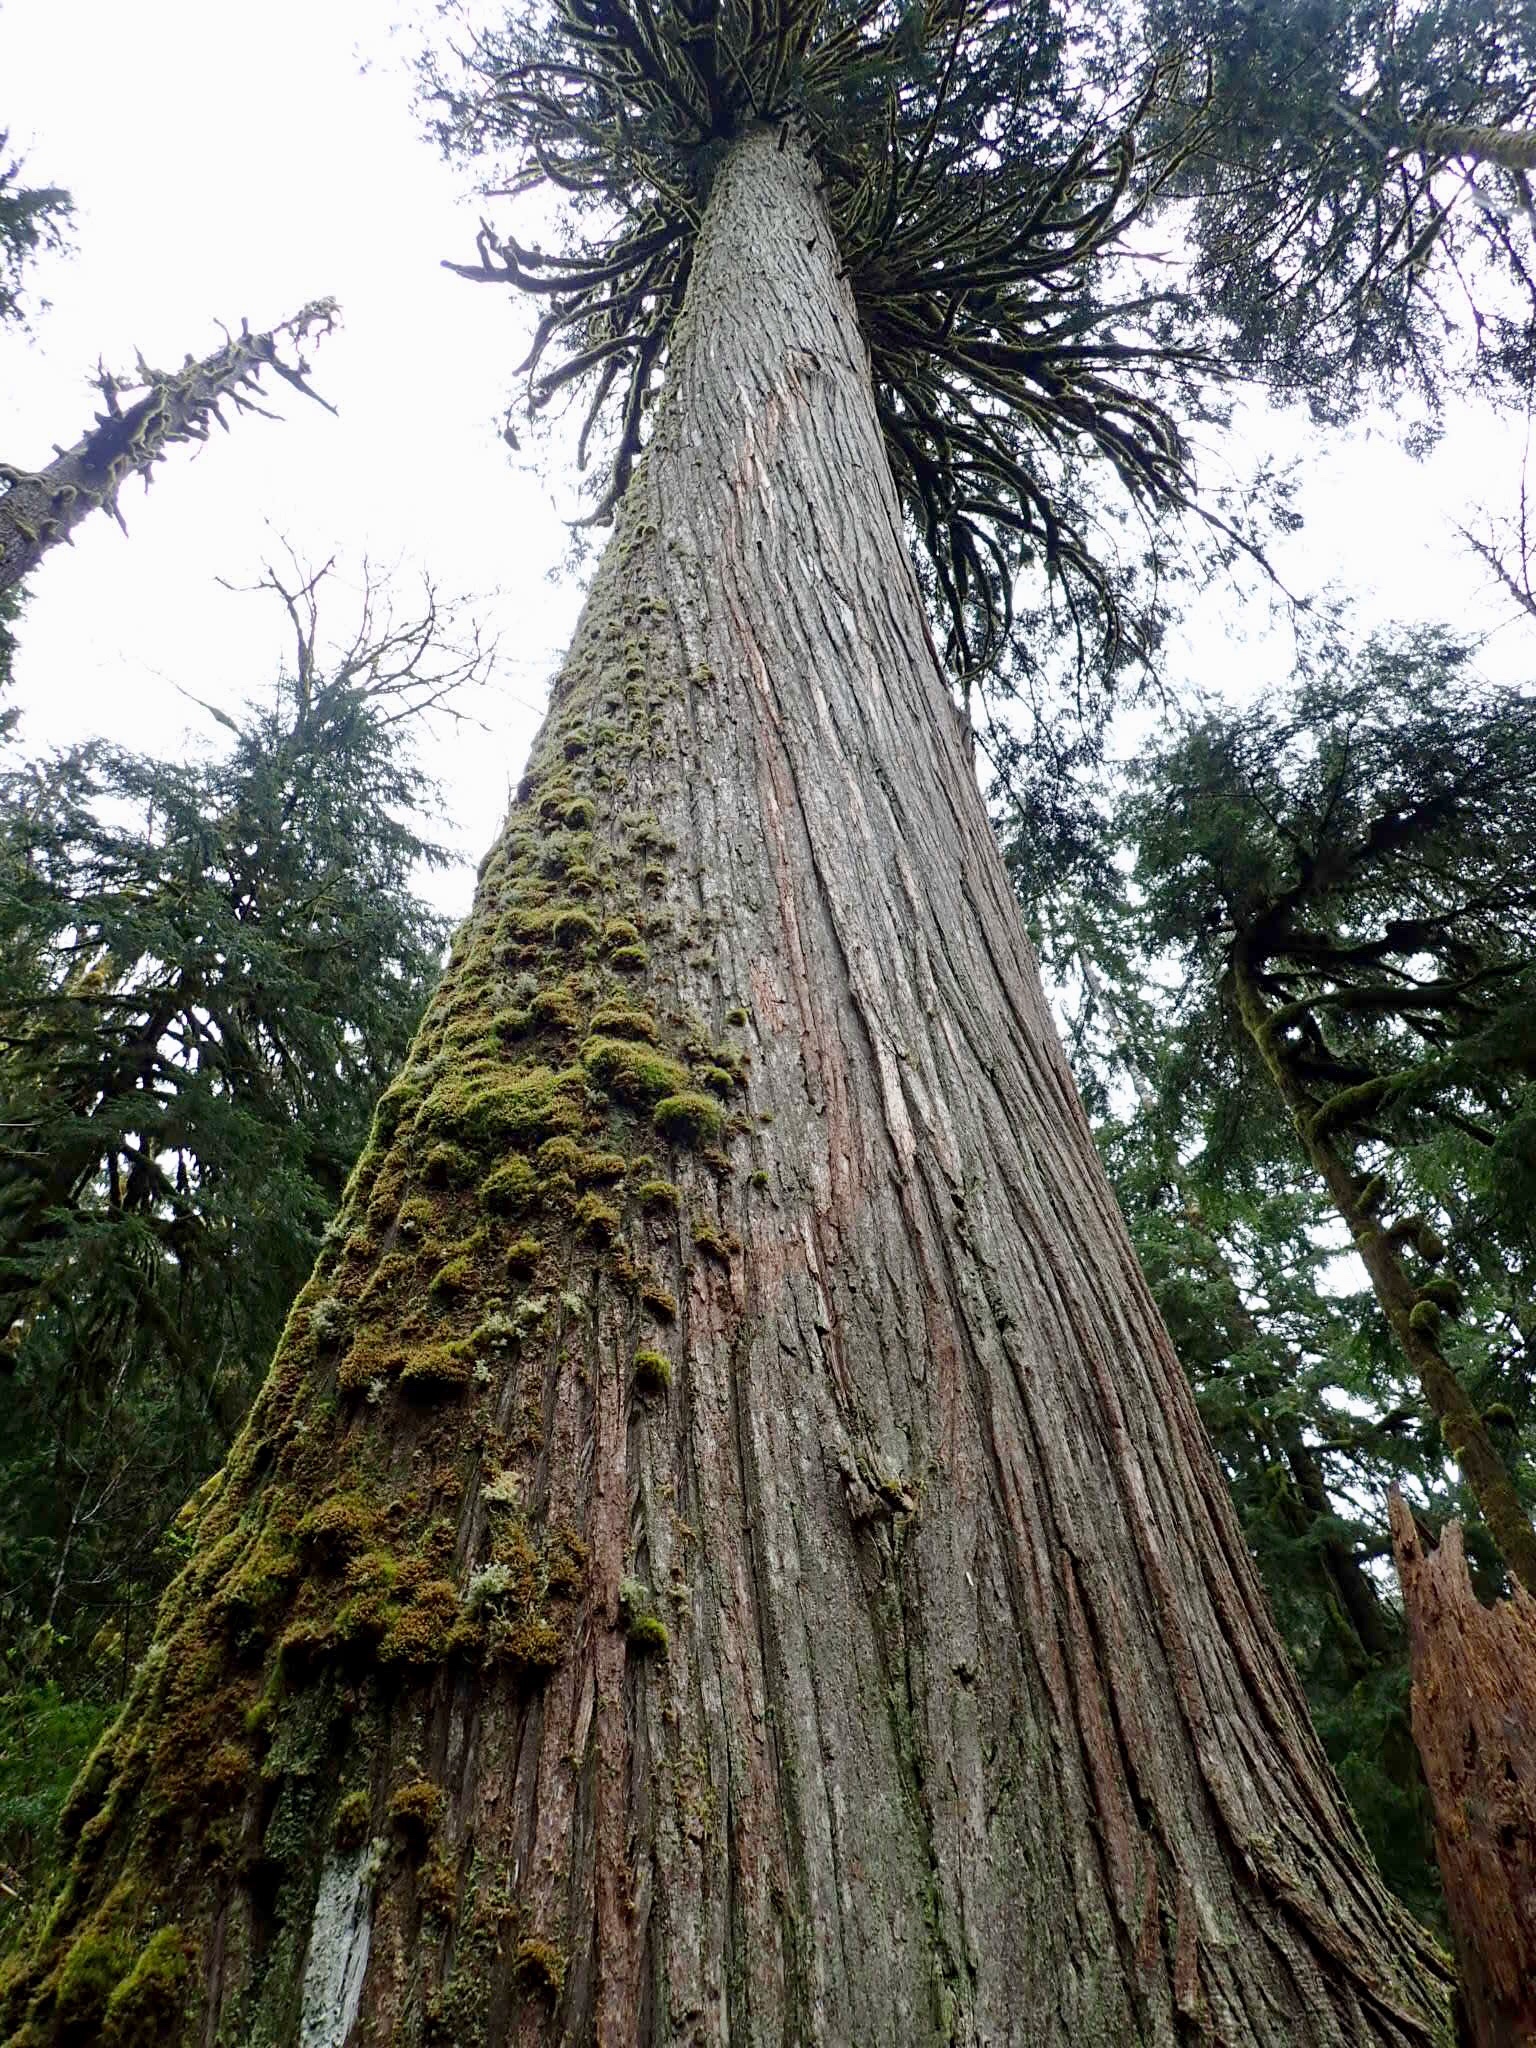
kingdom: Plantae
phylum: Tracheophyta
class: Pinopsida
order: Pinales
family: Cupressaceae
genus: Thuja
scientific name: Thuja plicata
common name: Western red-cedar
